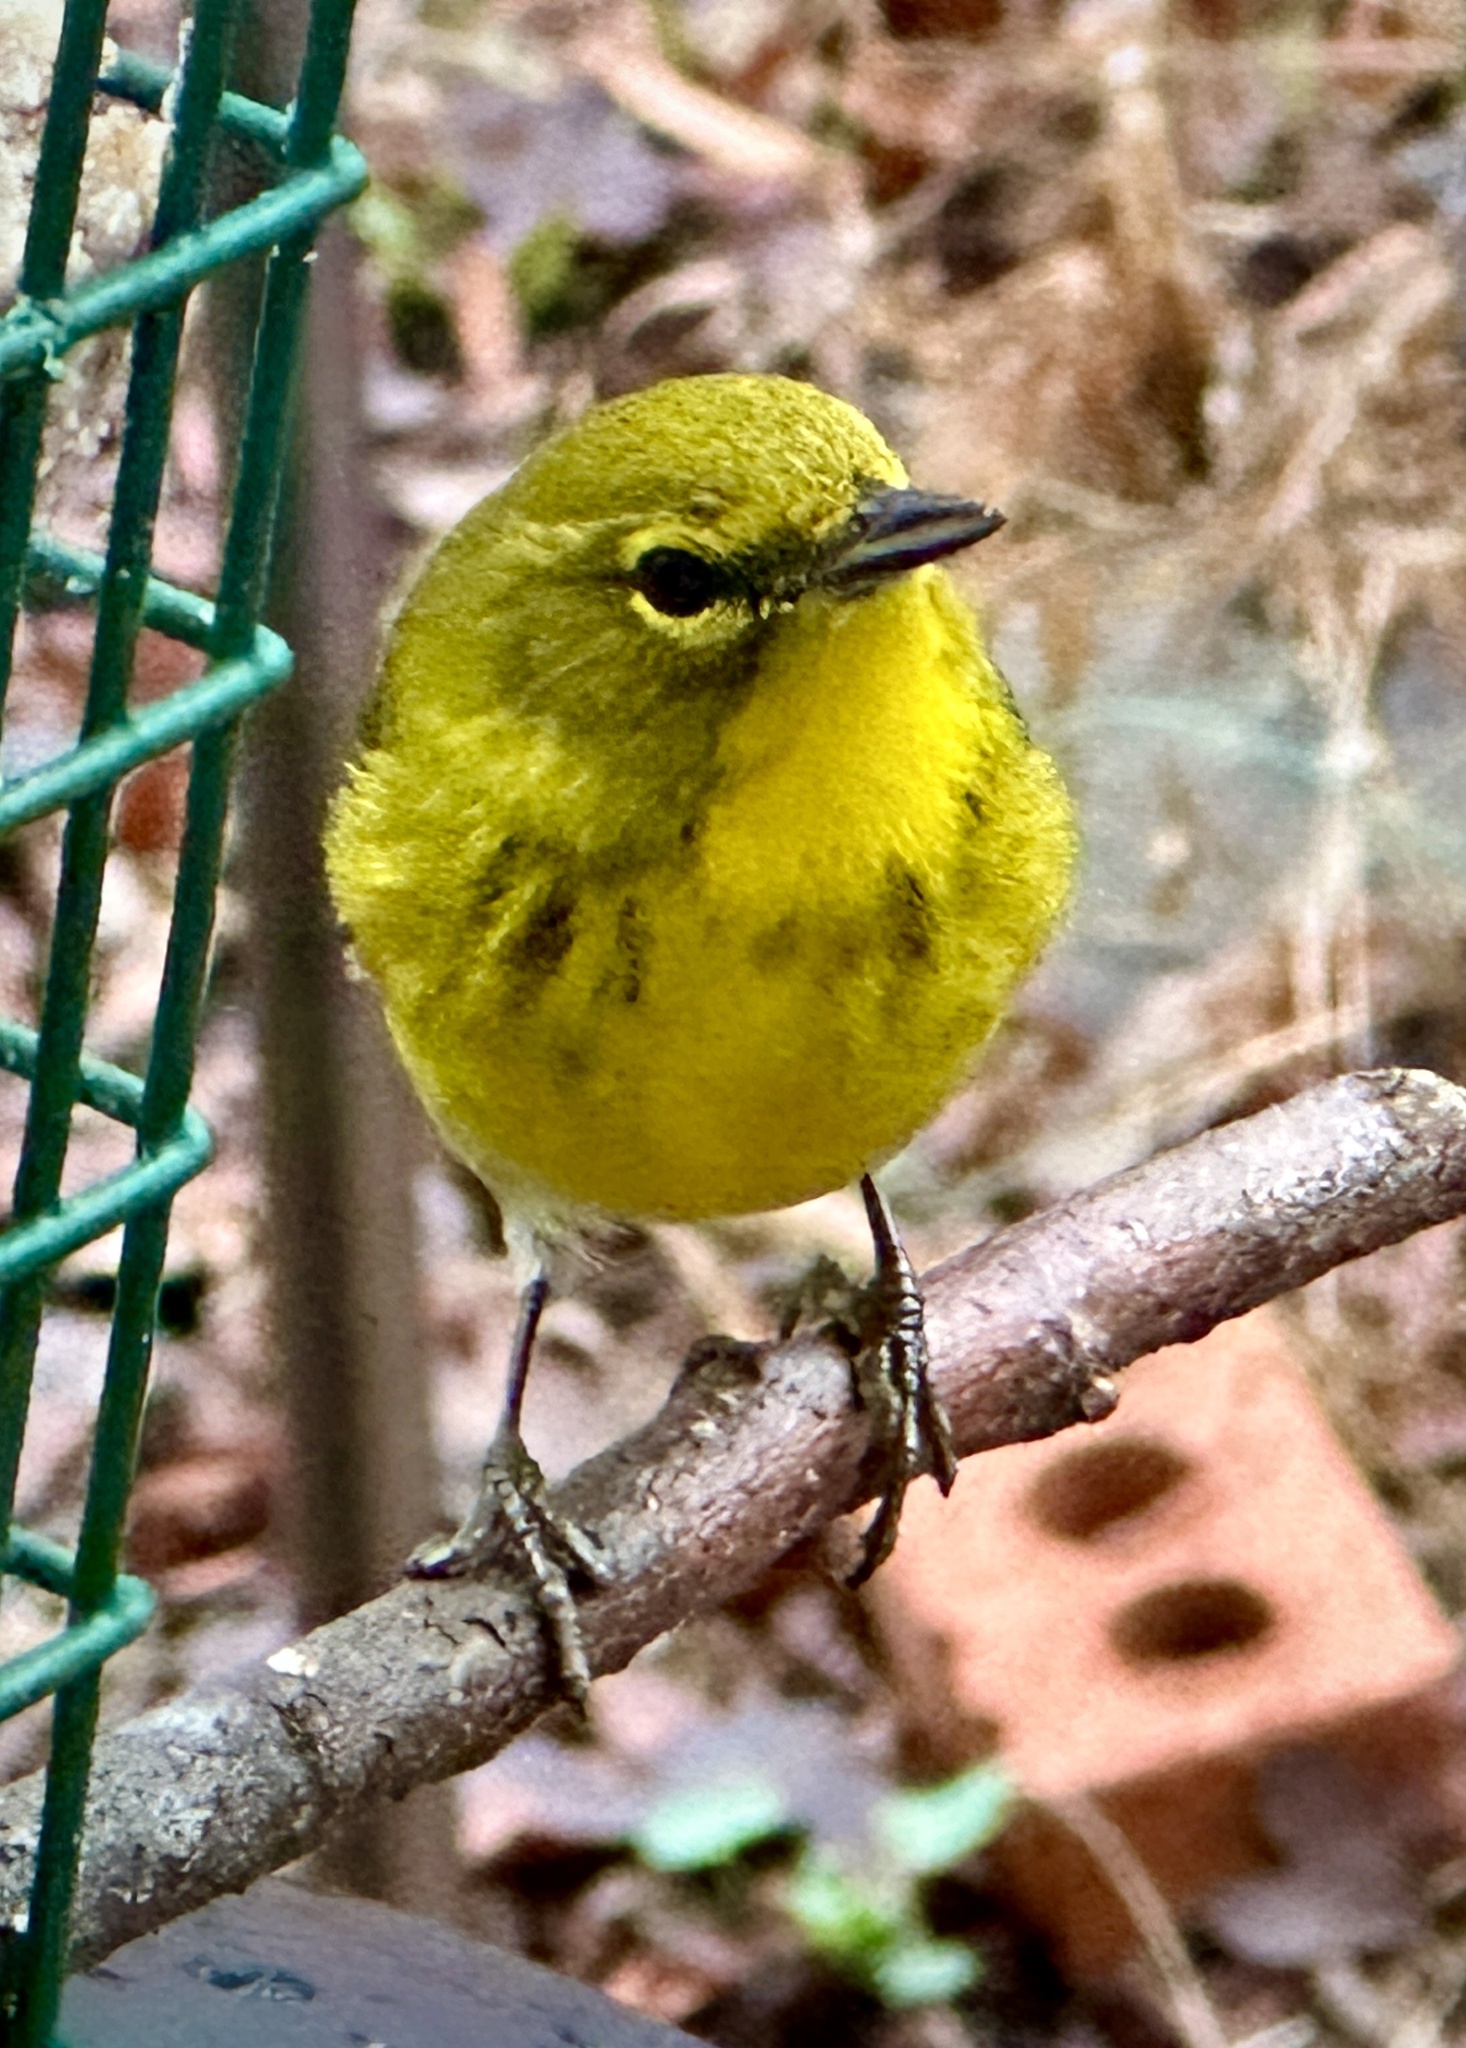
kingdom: Animalia
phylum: Chordata
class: Aves
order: Passeriformes
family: Parulidae
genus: Setophaga
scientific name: Setophaga pinus
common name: Pine warbler
